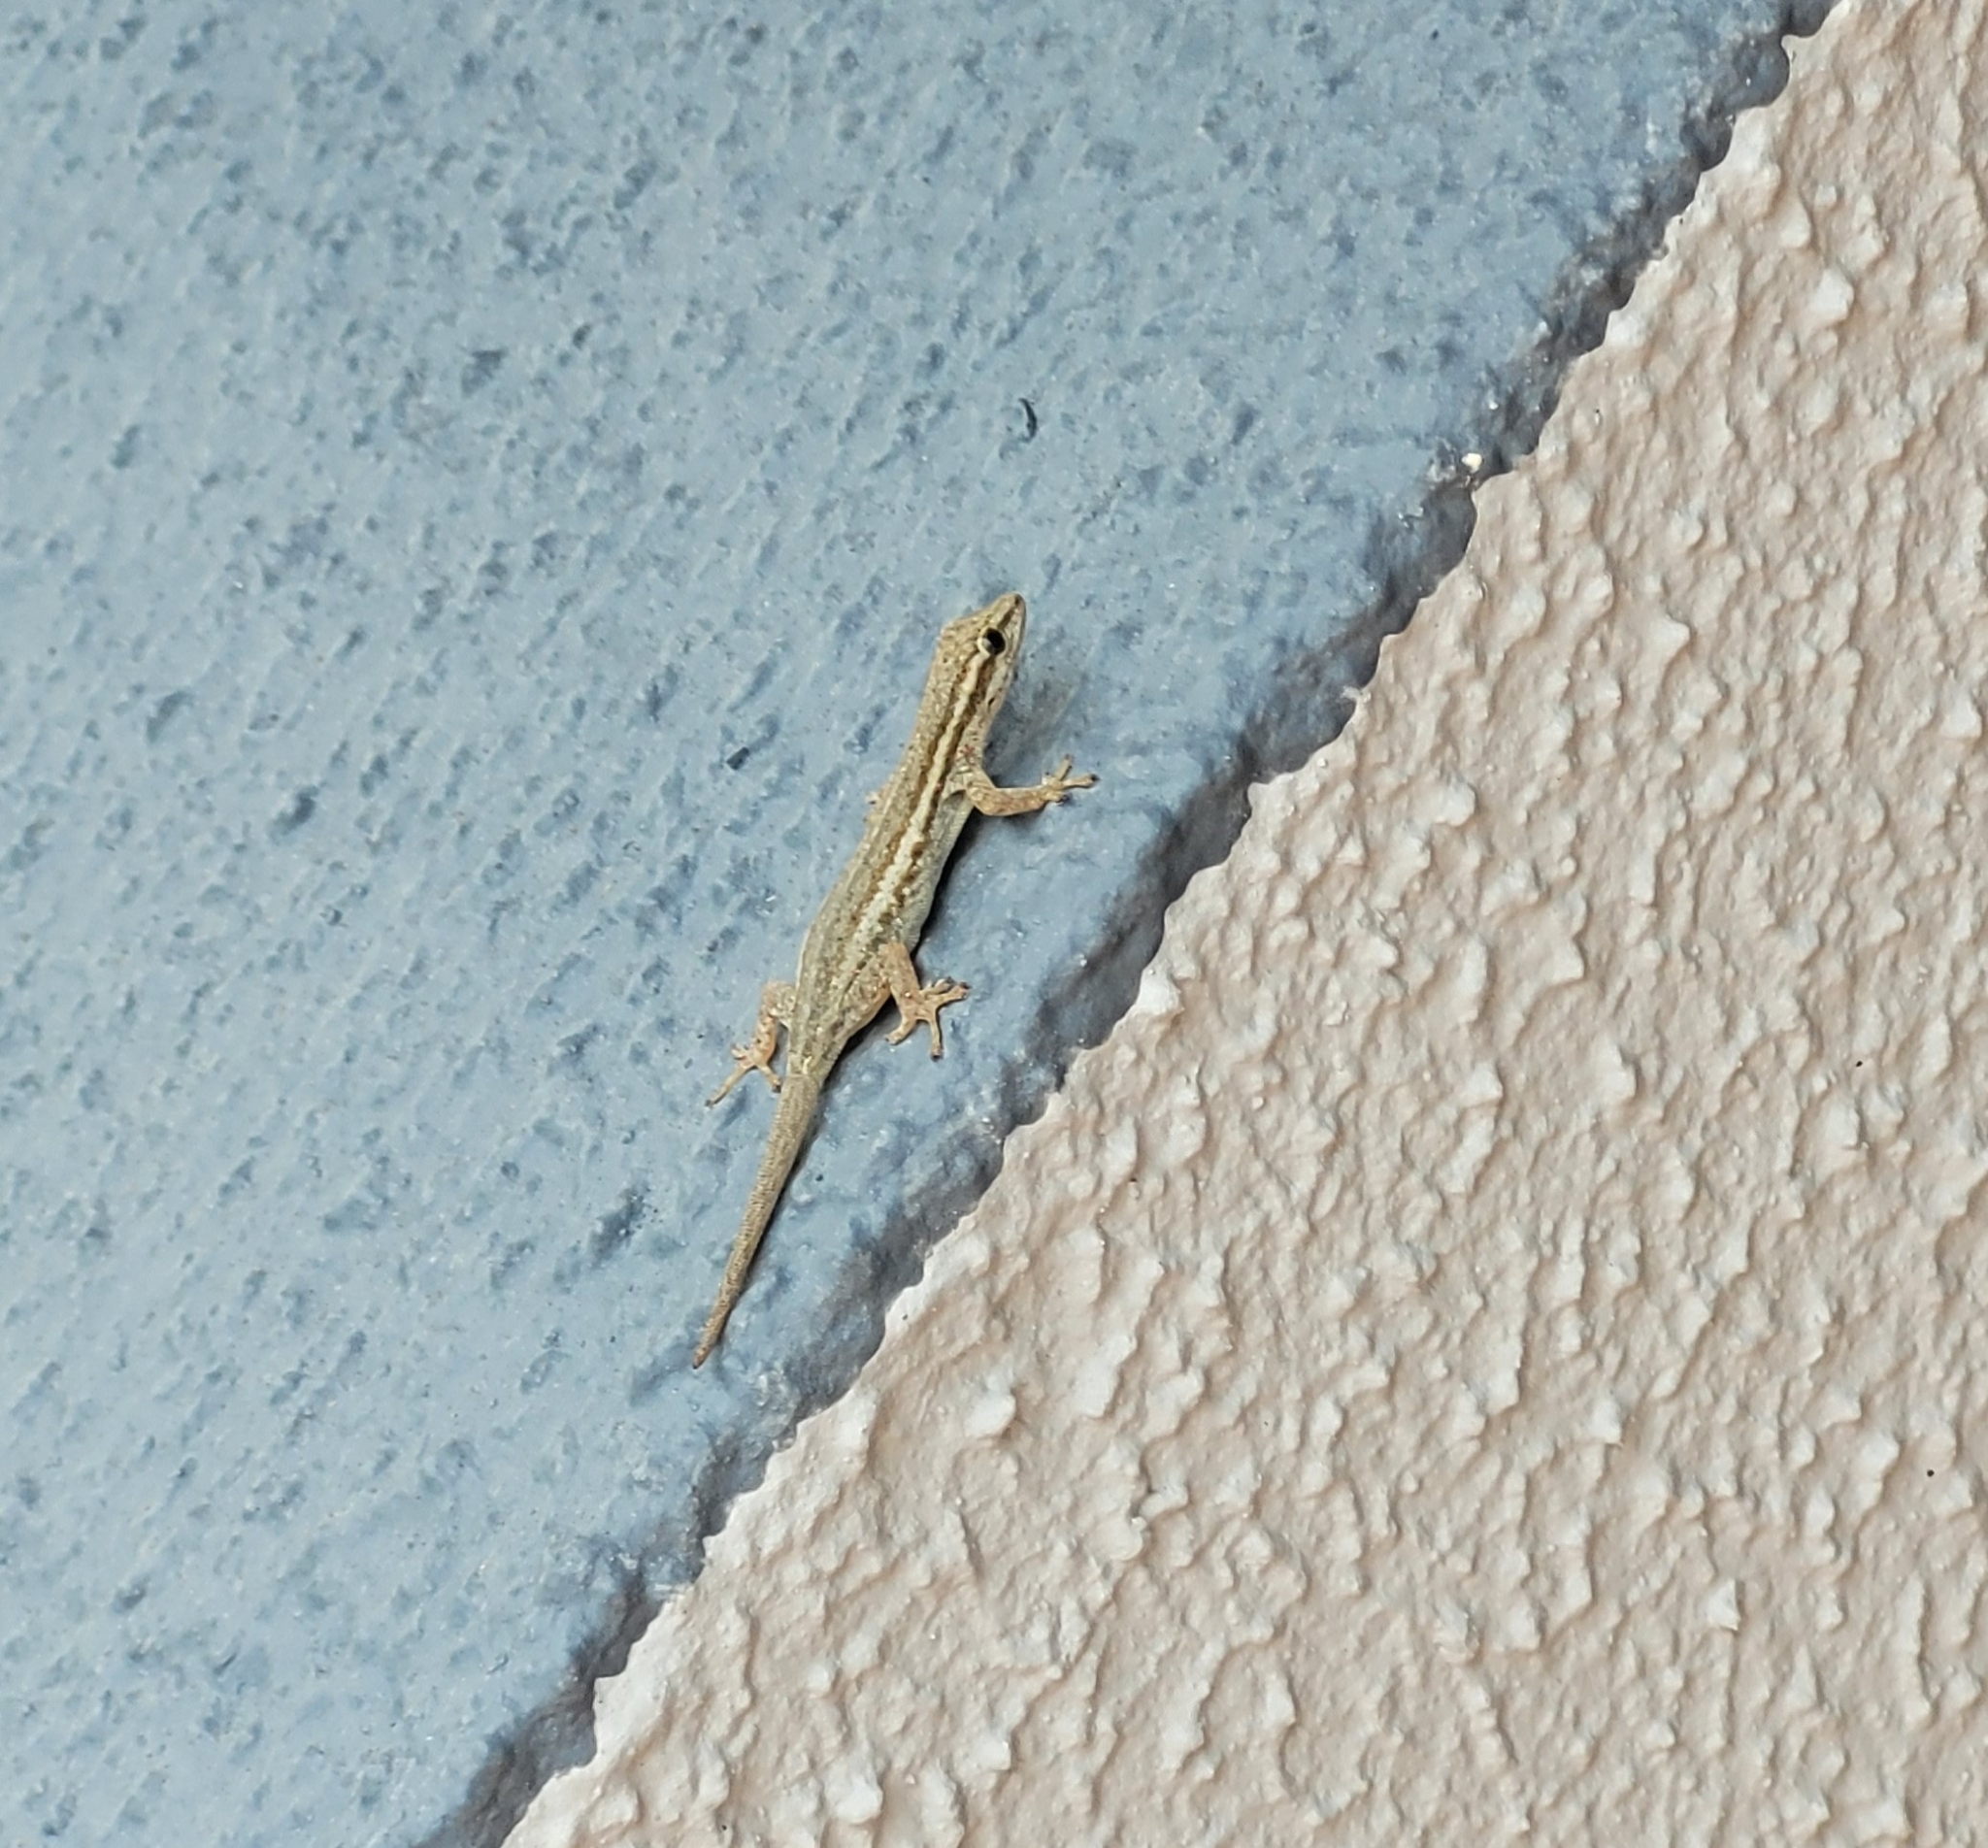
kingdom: Animalia
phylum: Chordata
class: Squamata
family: Gekkonidae
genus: Lygodactylus
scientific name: Lygodactylus capensis
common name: Cape dwarf gecko
